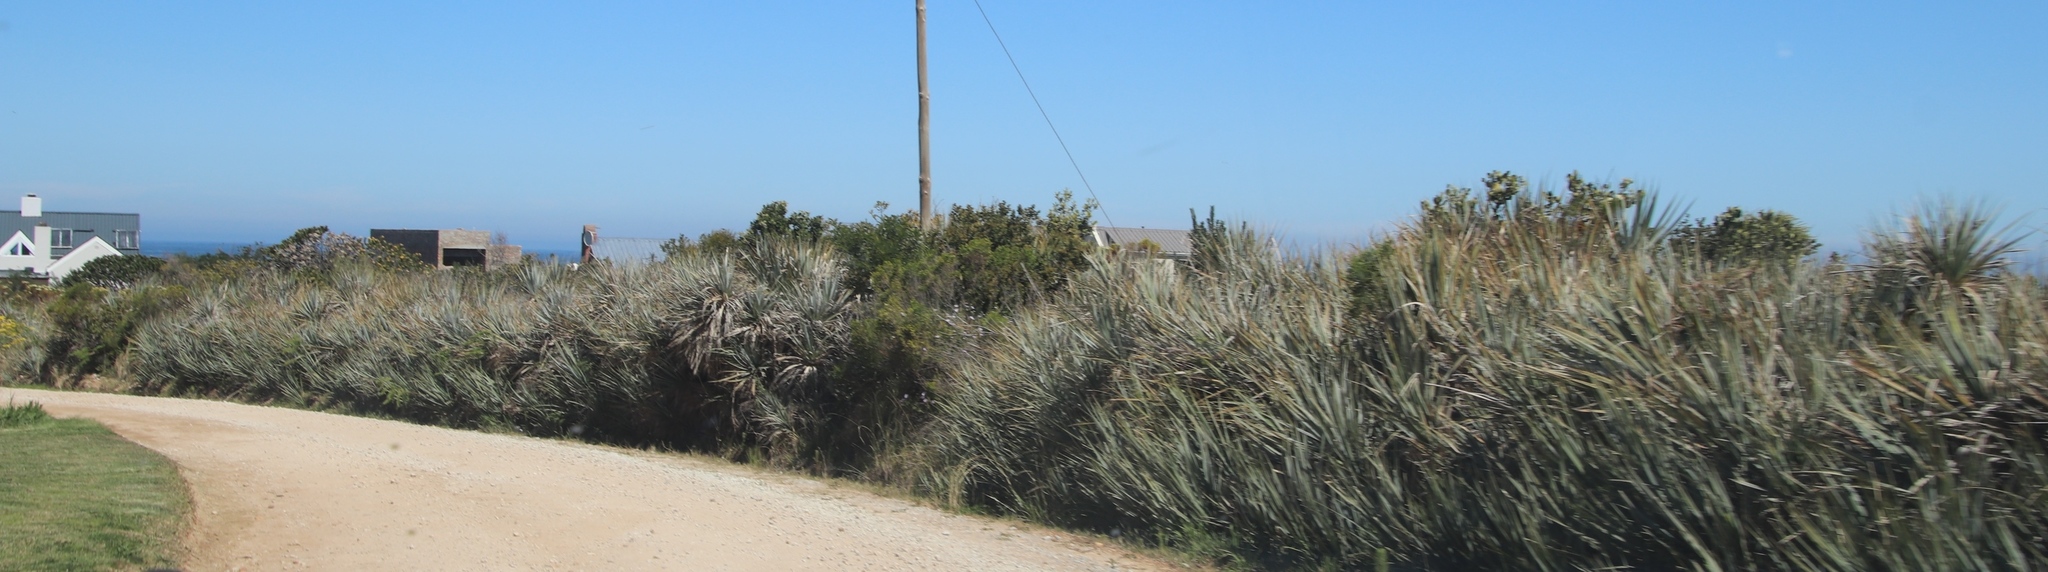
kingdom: Plantae
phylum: Tracheophyta
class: Liliopsida
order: Poales
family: Thurniaceae
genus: Prionium
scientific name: Prionium serratum
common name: Palmiet
